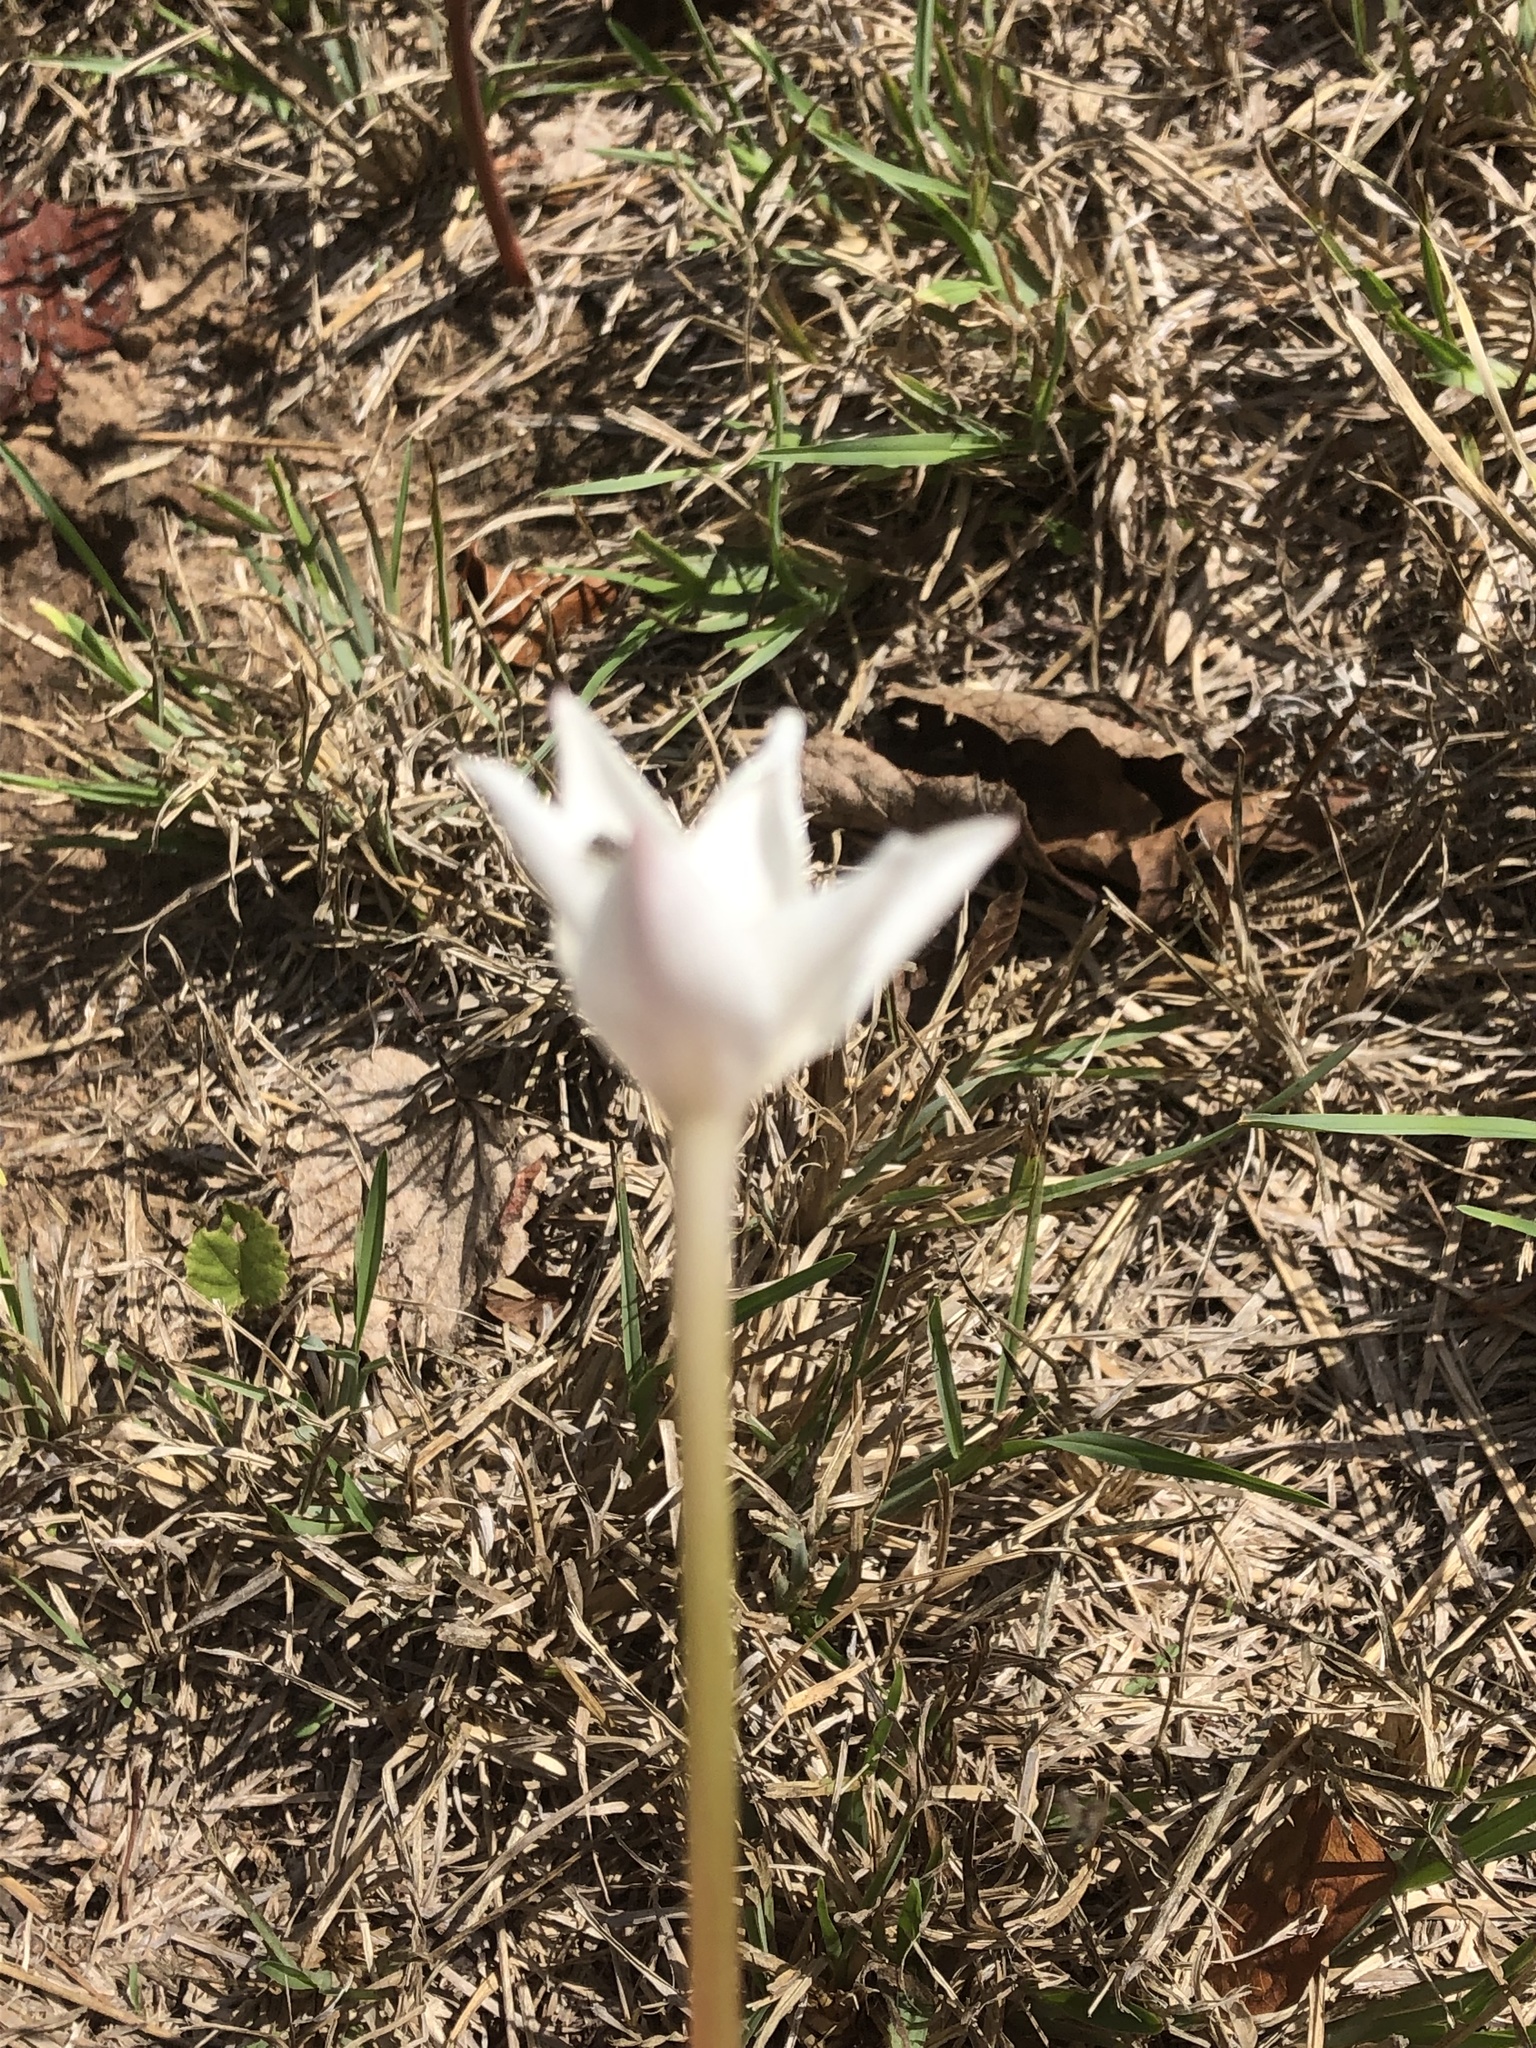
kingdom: Plantae
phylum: Tracheophyta
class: Liliopsida
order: Asparagales
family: Amaryllidaceae
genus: Zephyranthes
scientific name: Zephyranthes chlorosolen
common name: Evening rain-lily
